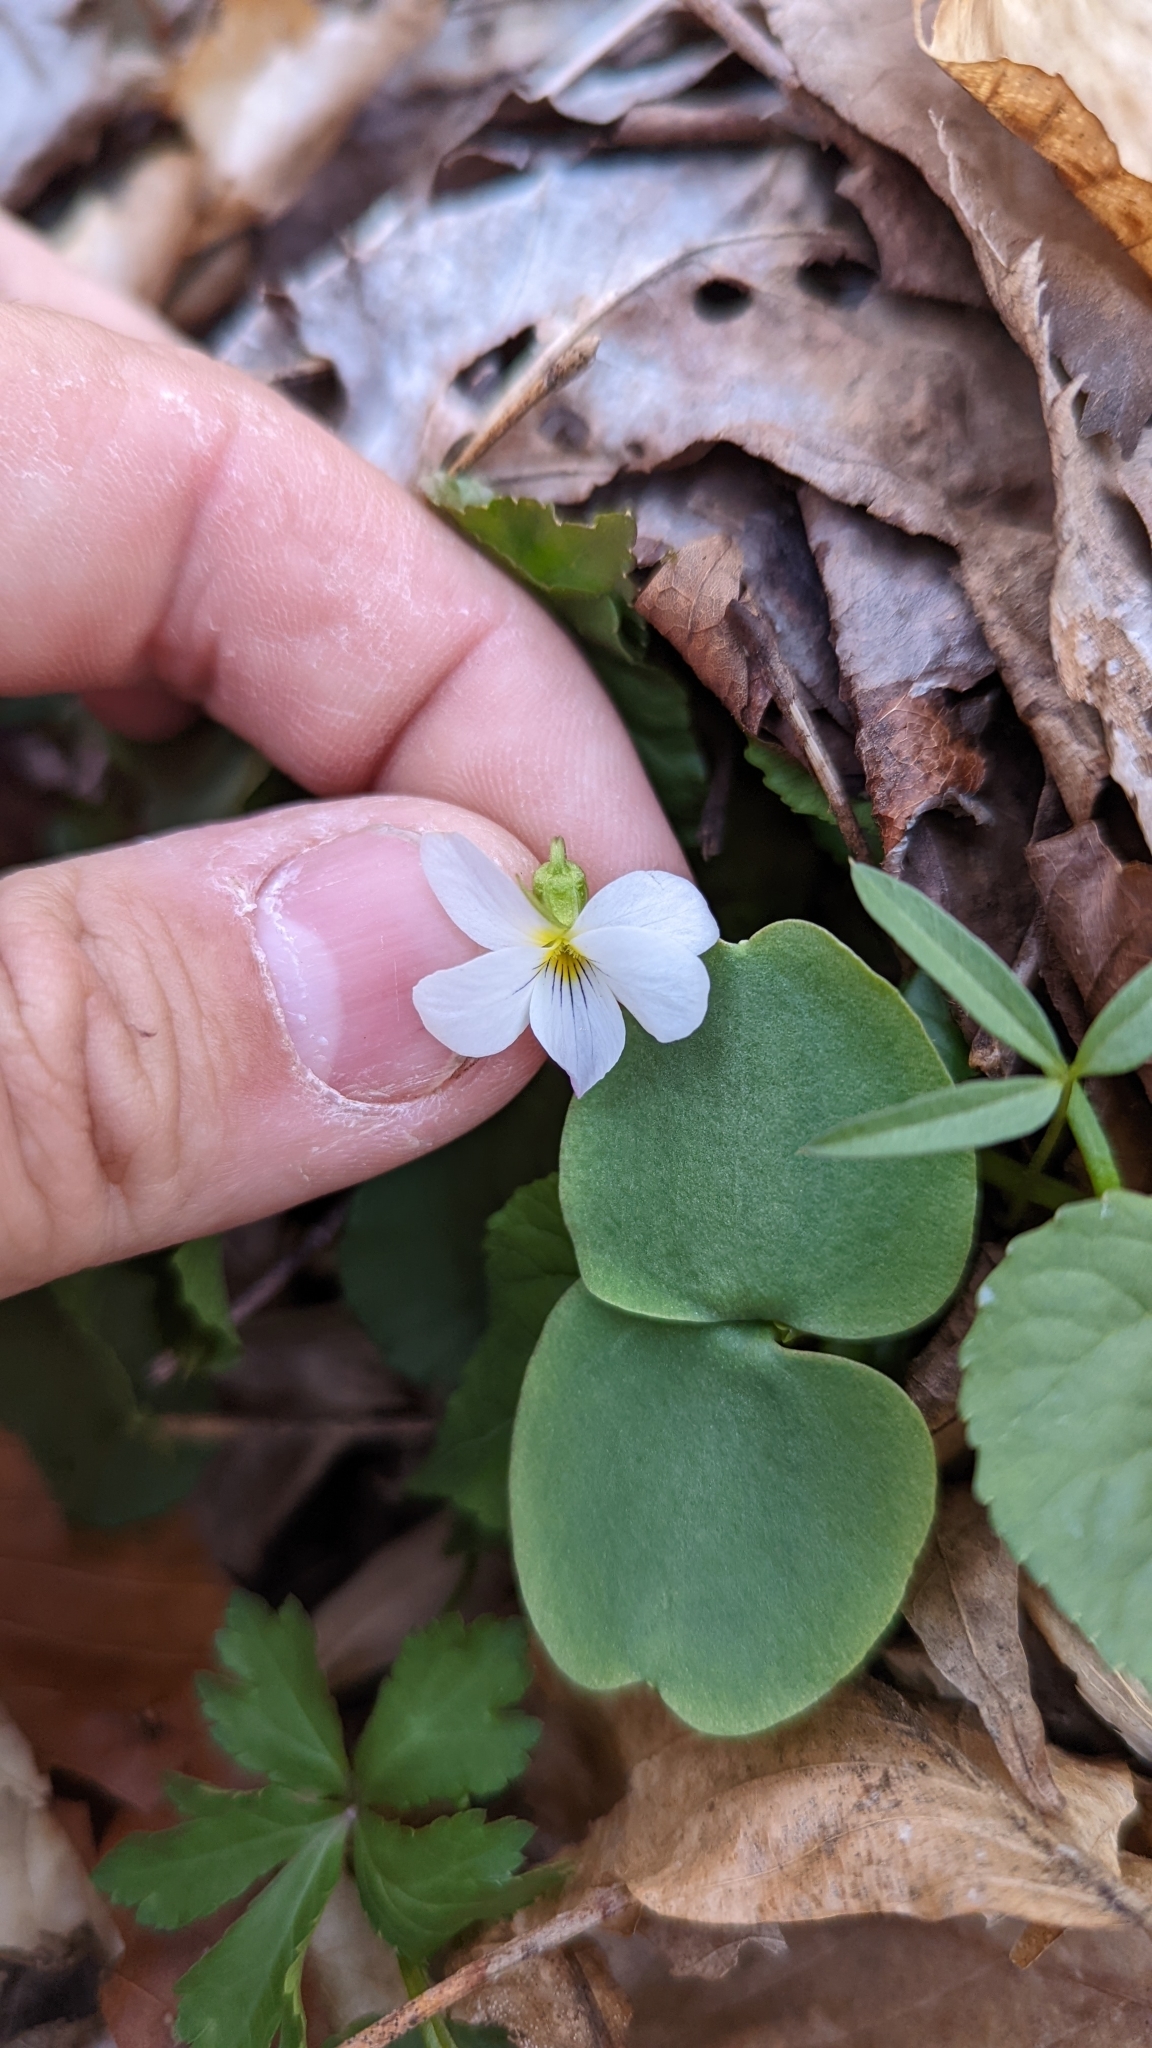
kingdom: Plantae
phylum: Tracheophyta
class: Magnoliopsida
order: Malpighiales
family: Violaceae
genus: Viola
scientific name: Viola canadensis
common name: Canada violet
